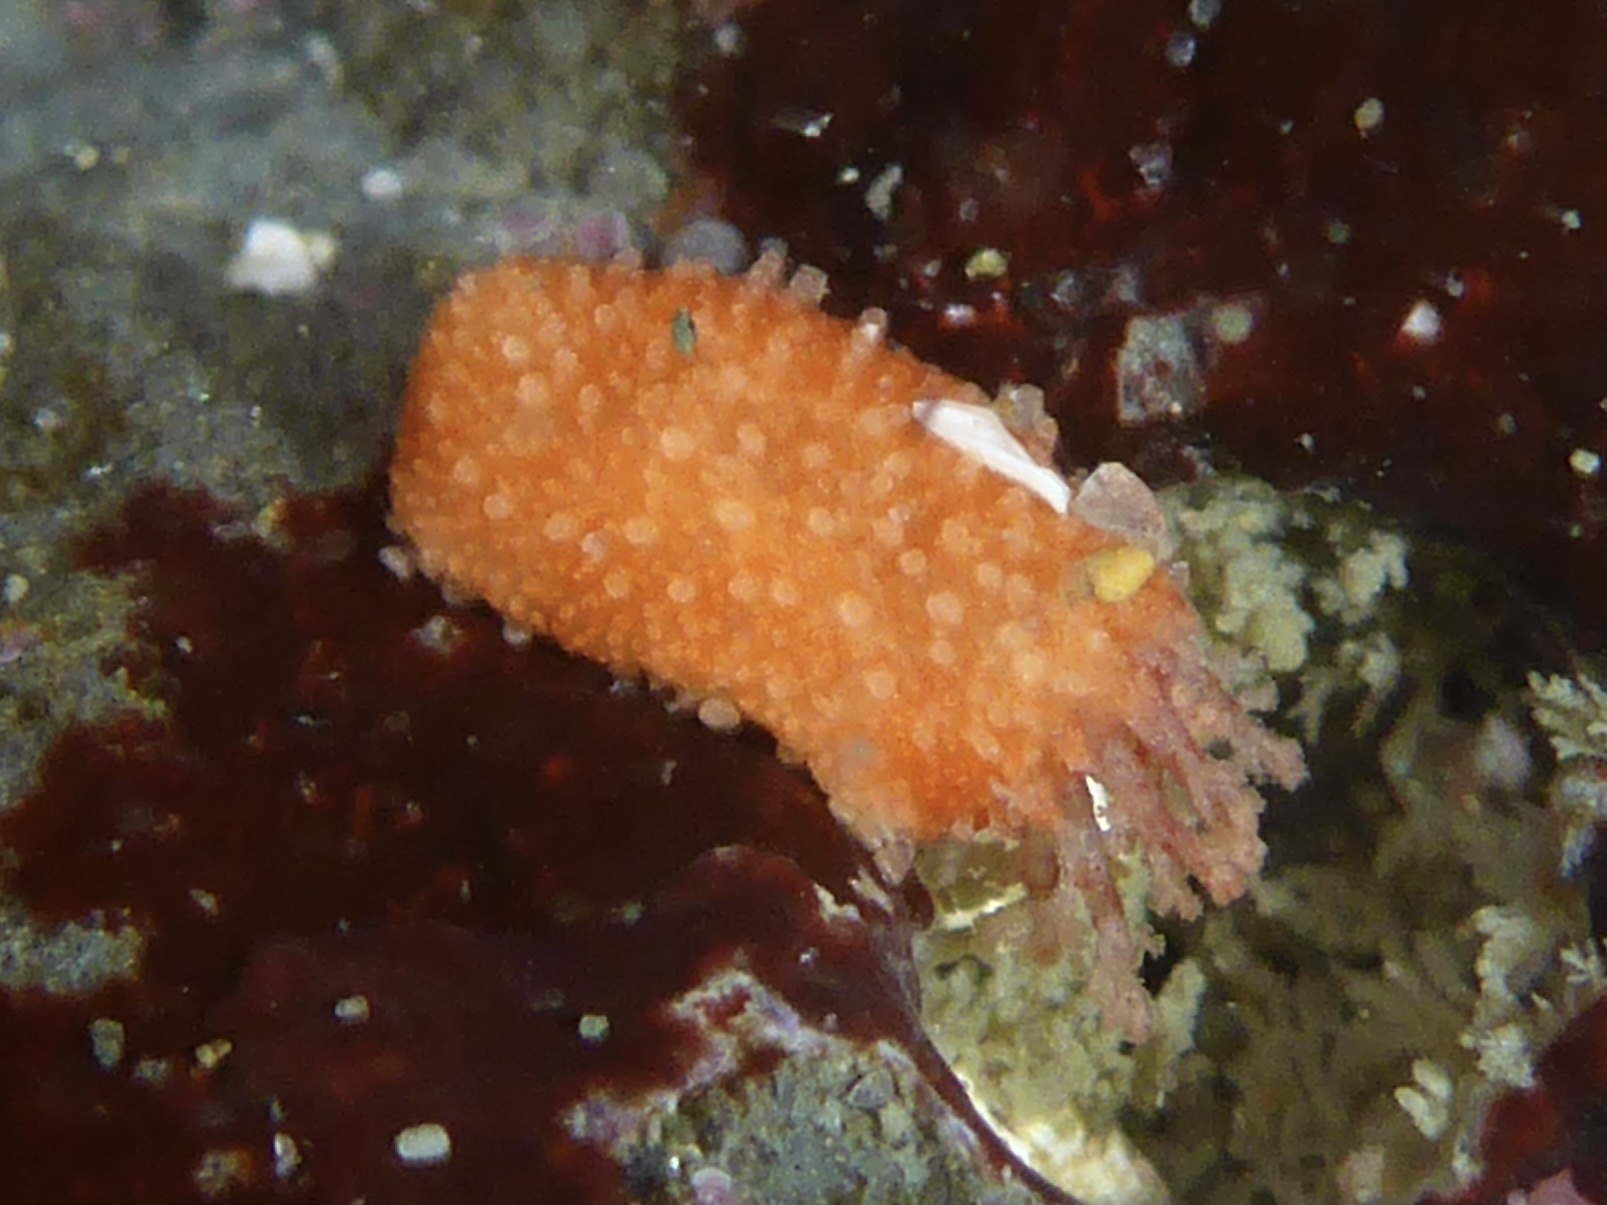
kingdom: Animalia
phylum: Echinodermata
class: Holothuroidea
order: Dendrochirotida
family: Psolidae
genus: Lissothuria
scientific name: Lissothuria nutriens
